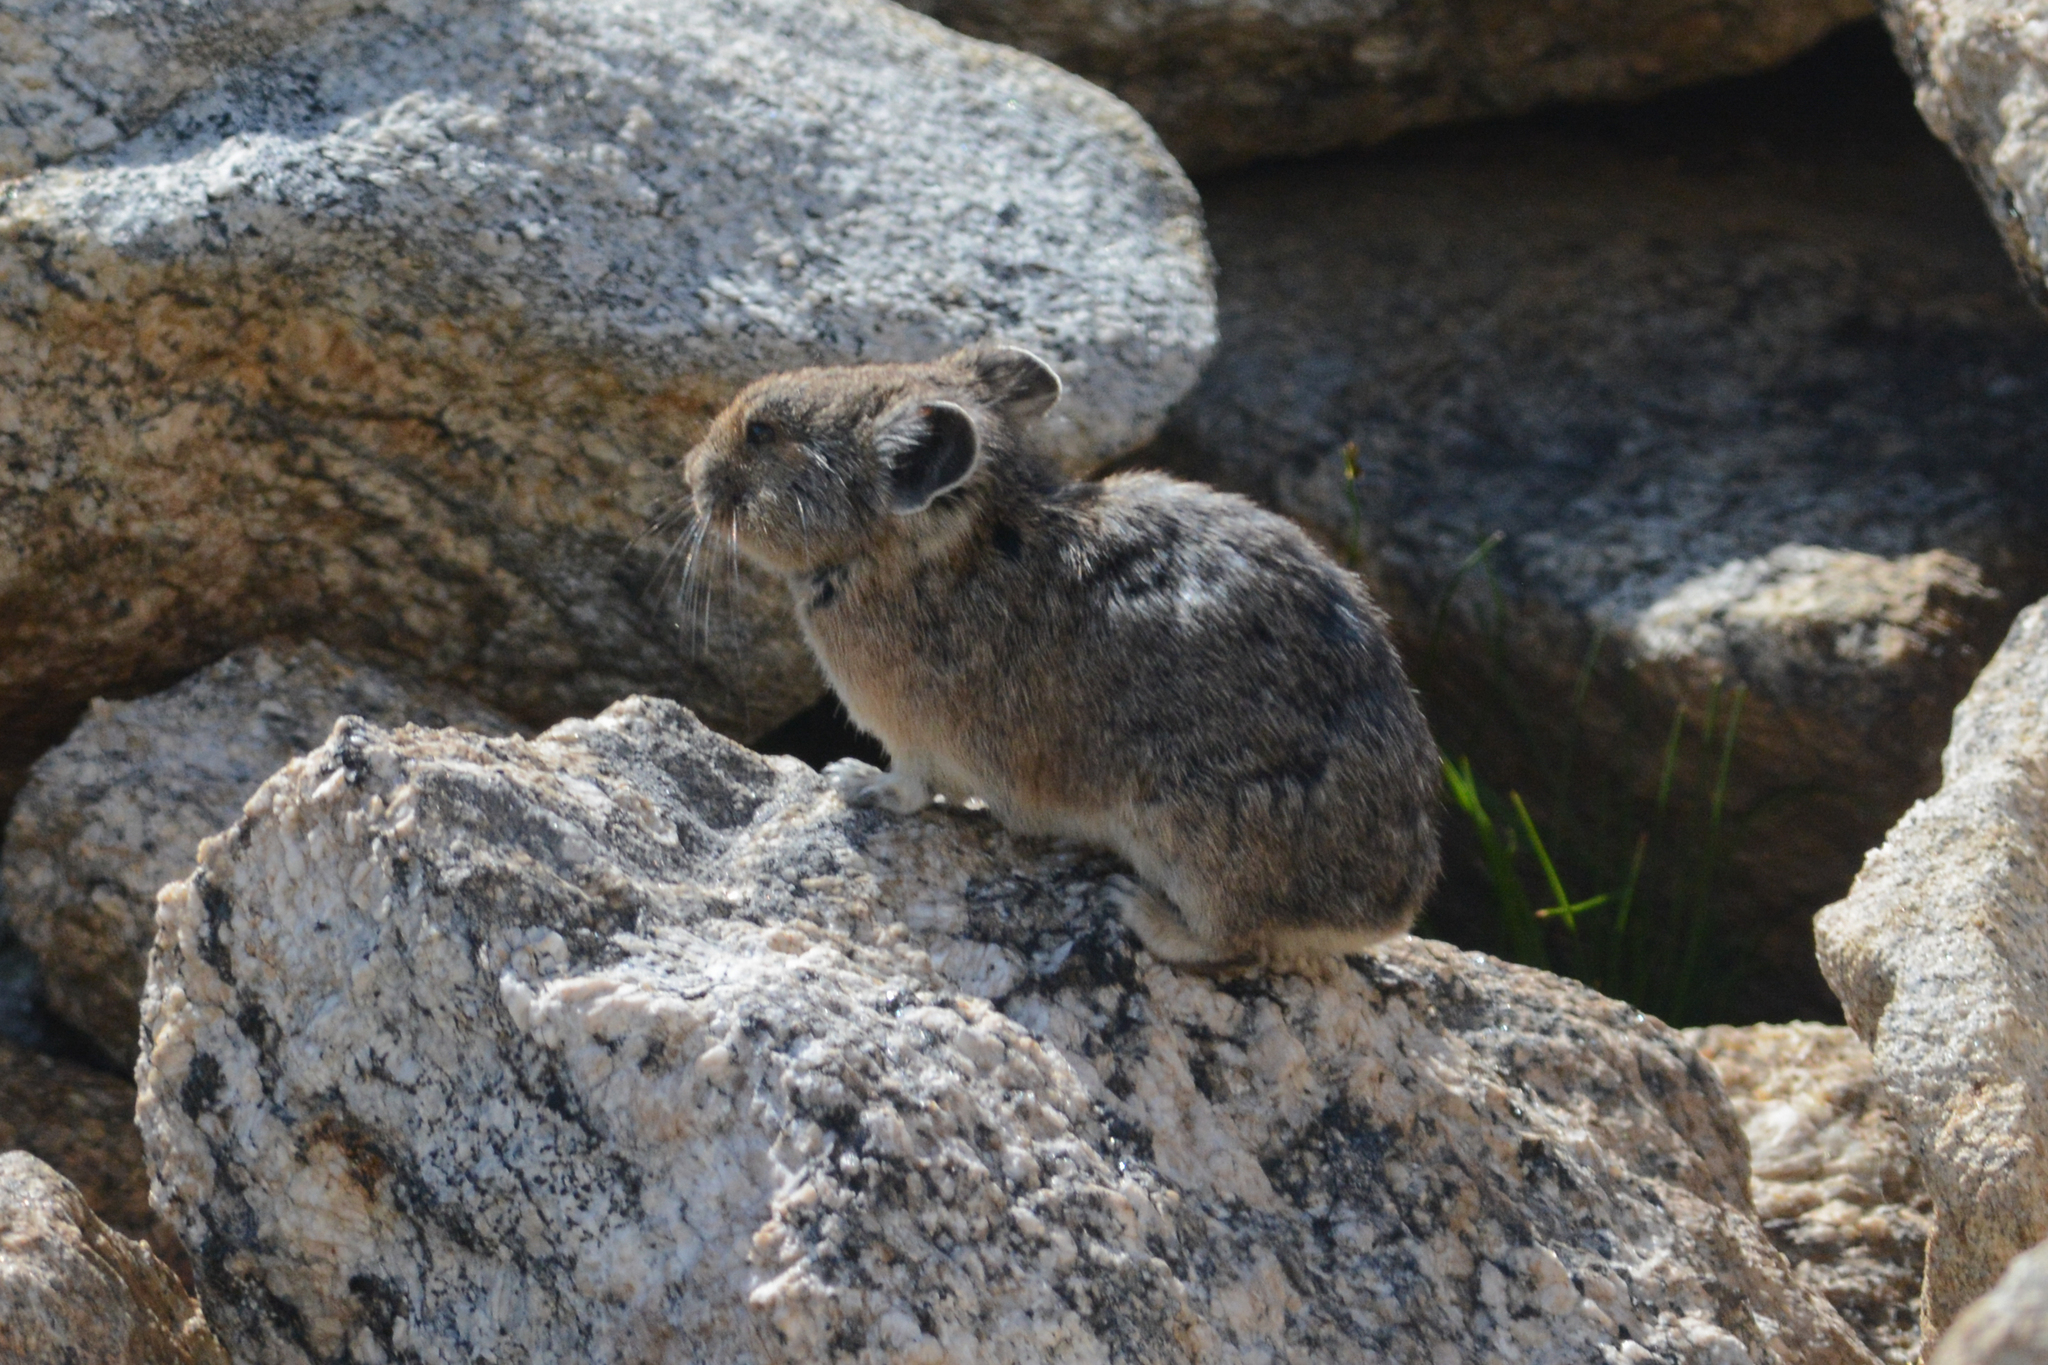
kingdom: Animalia
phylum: Chordata
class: Mammalia
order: Lagomorpha
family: Ochotonidae
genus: Ochotona
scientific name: Ochotona princeps
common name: American pika
